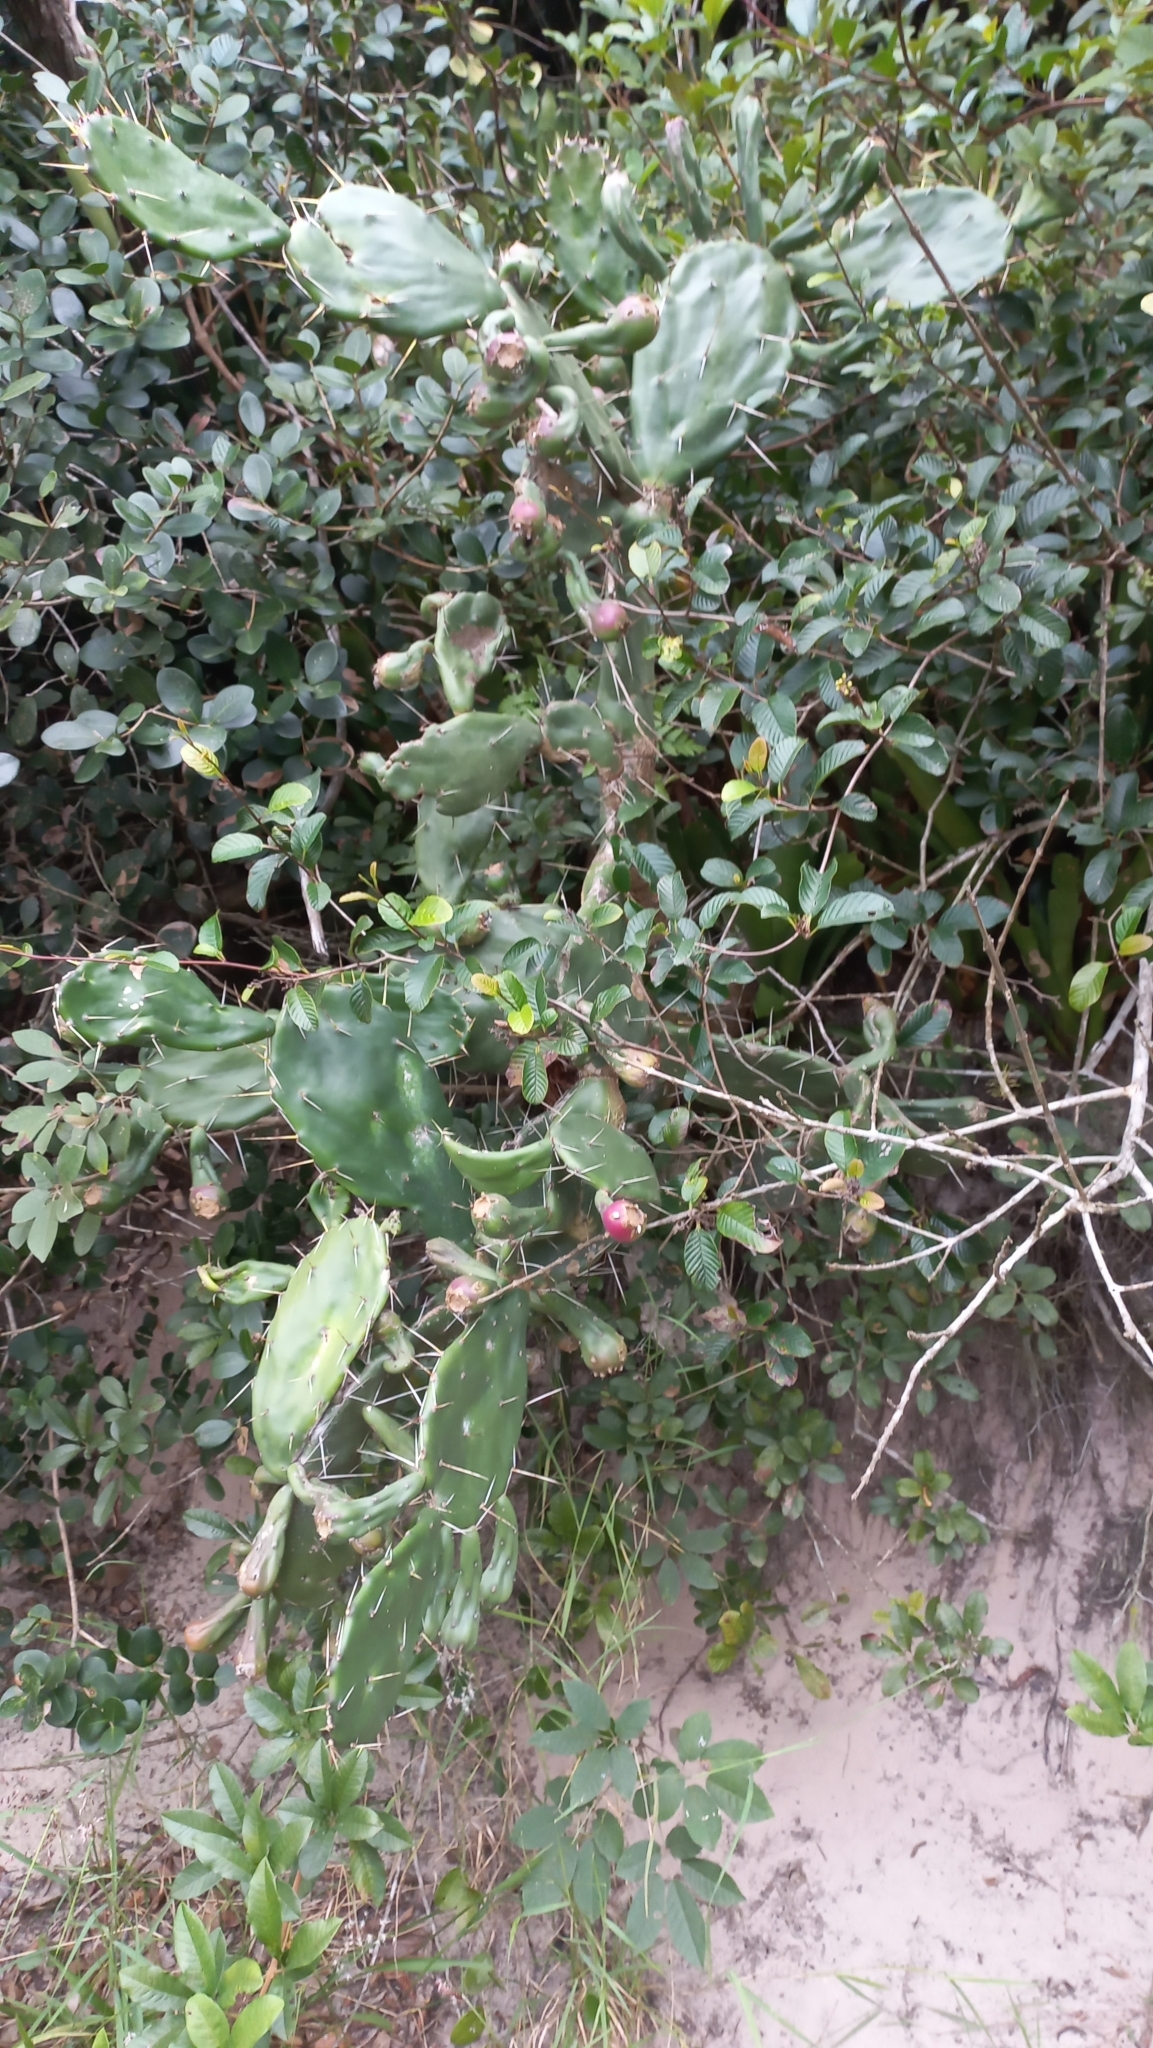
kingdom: Plantae
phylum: Tracheophyta
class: Magnoliopsida
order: Caryophyllales
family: Cactaceae
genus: Opuntia
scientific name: Opuntia monacantha
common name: Common pricklypear
